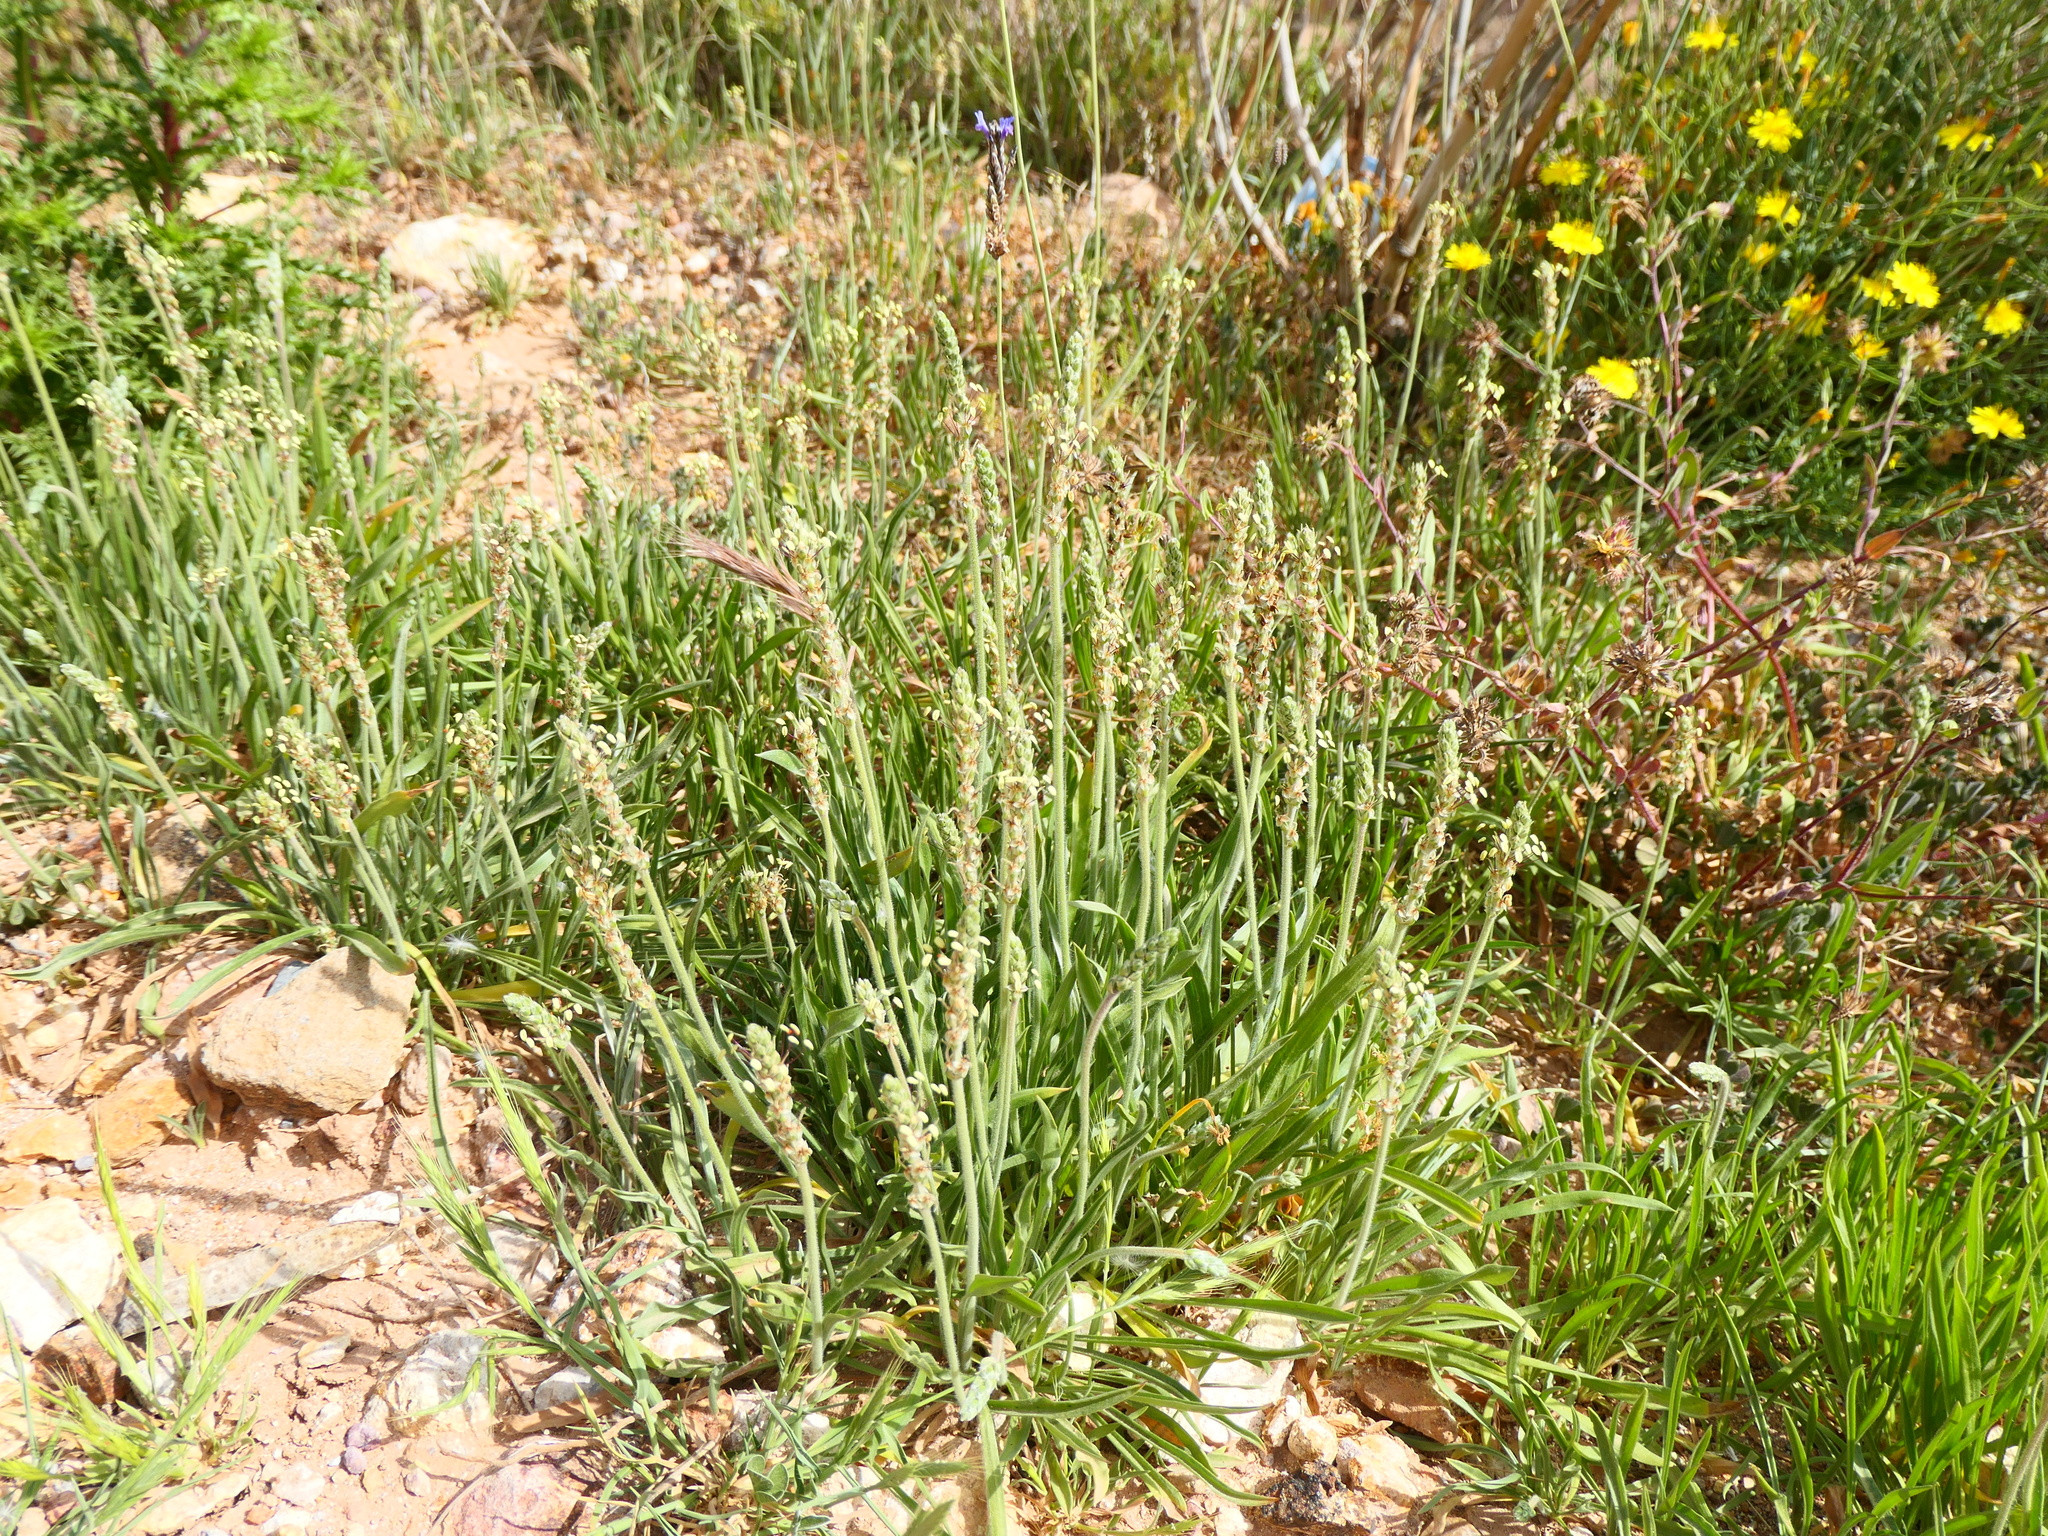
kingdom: Plantae
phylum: Tracheophyta
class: Magnoliopsida
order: Lamiales
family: Plantaginaceae
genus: Plantago
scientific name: Plantago albicans
